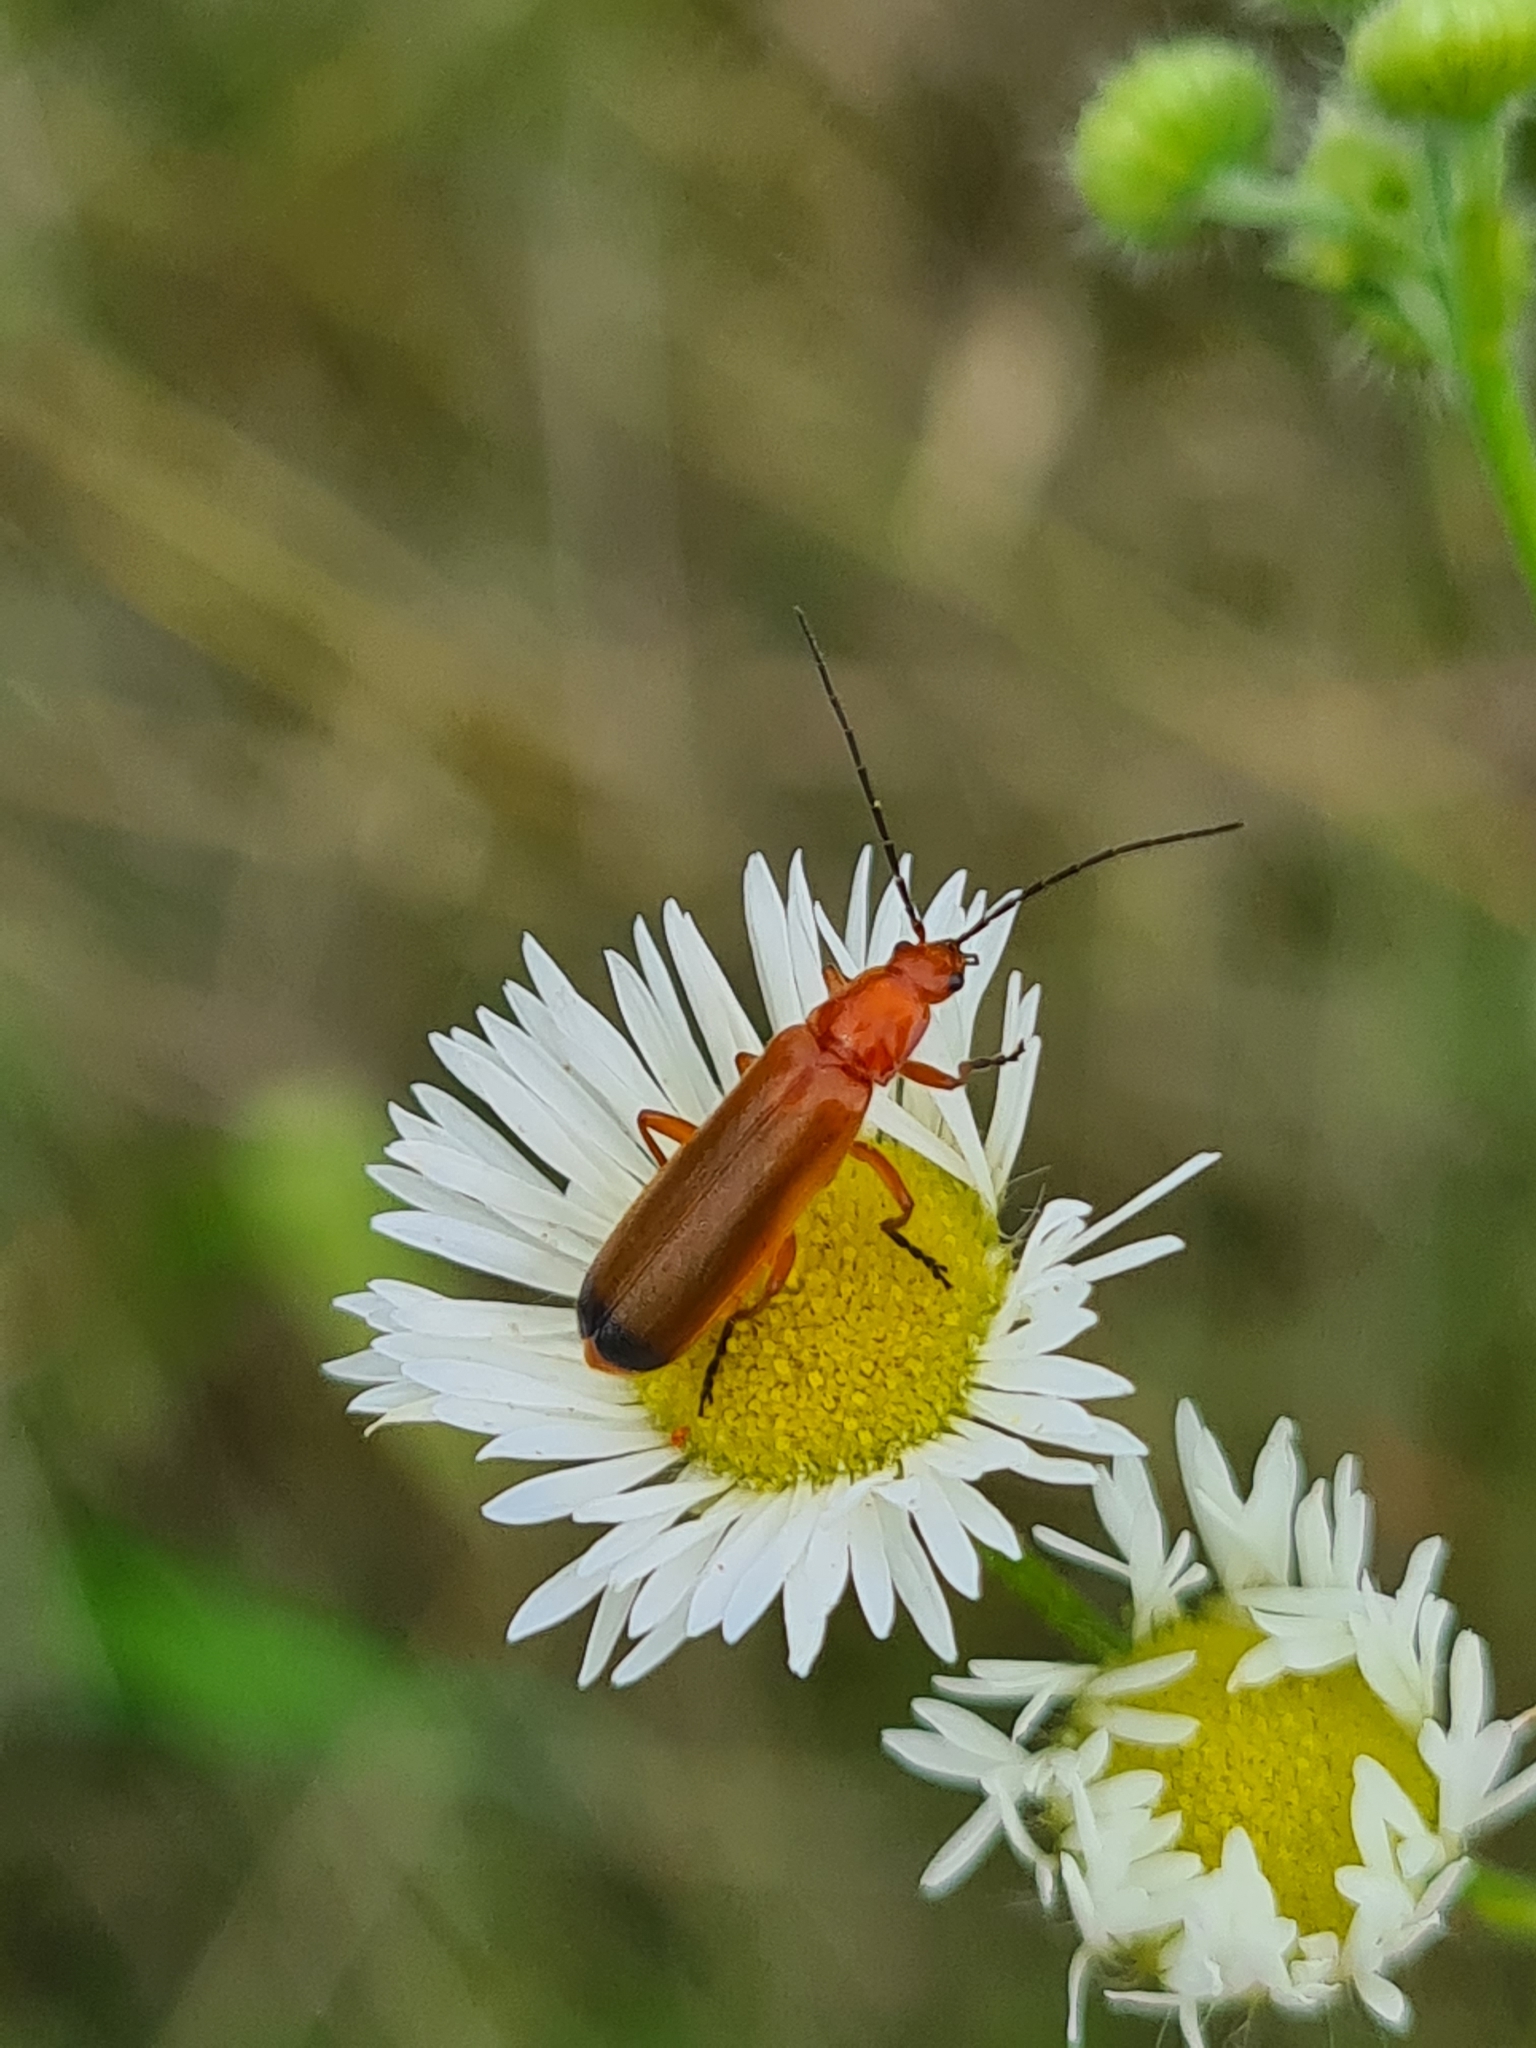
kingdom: Animalia
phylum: Arthropoda
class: Insecta
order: Coleoptera
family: Cantharidae
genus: Rhagonycha
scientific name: Rhagonycha fulva
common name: Common red soldier beetle
